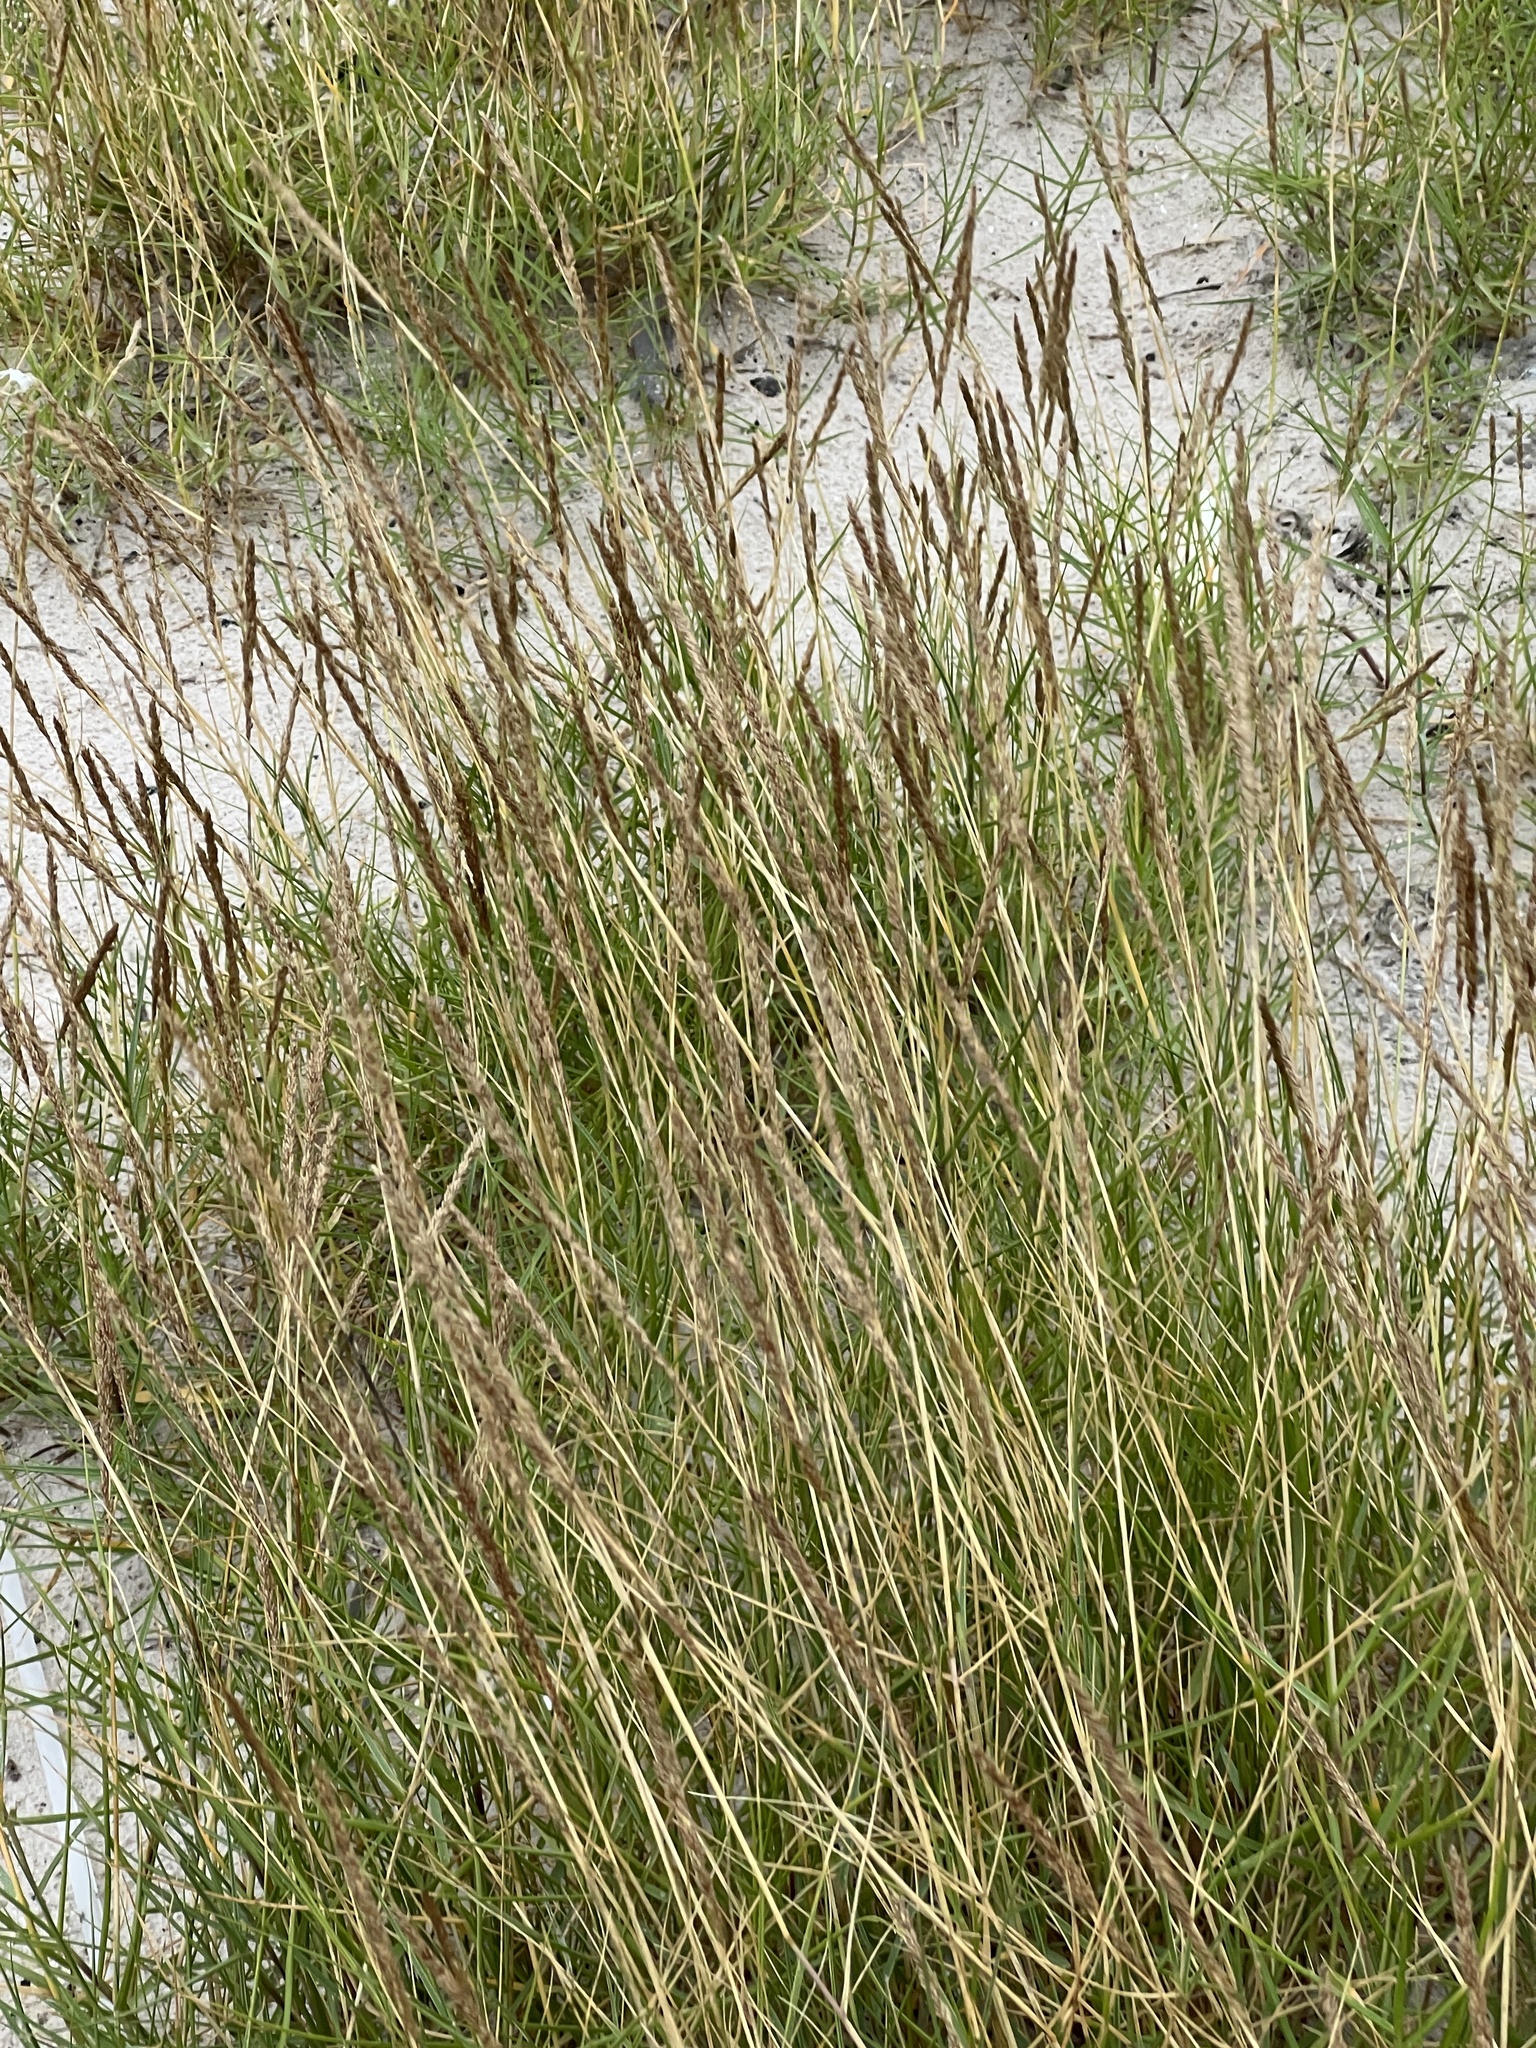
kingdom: Plantae
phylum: Tracheophyta
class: Liliopsida
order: Poales
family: Poaceae
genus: Sporobolus
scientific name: Sporobolus virginicus
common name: Beach dropseed
